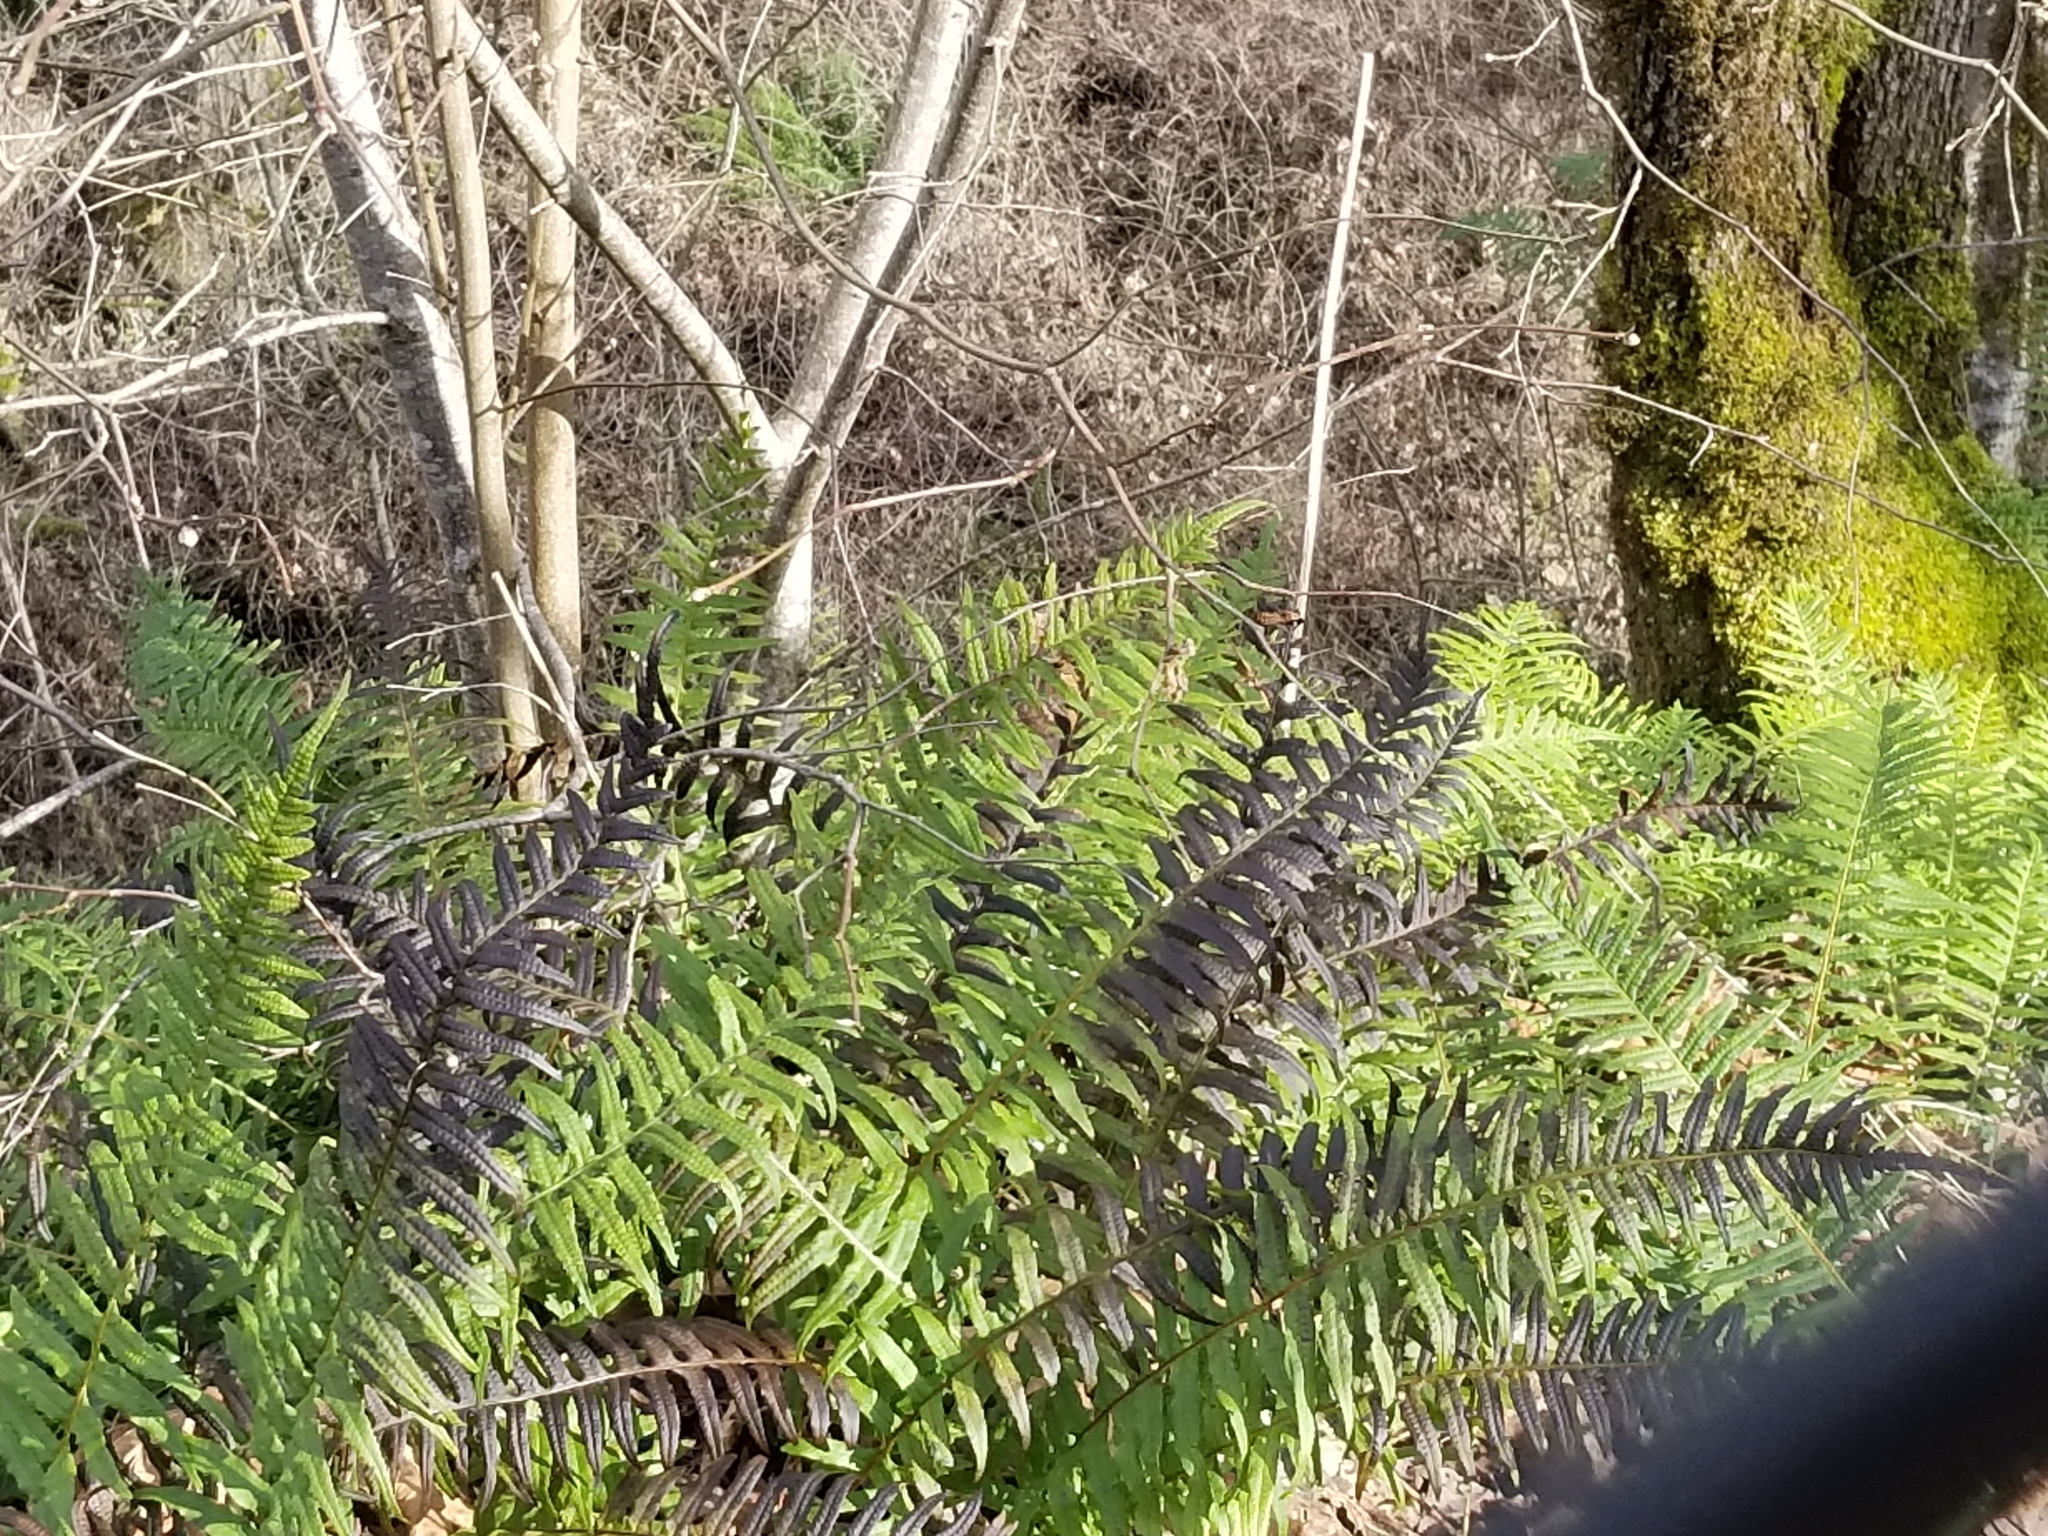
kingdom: Plantae
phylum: Tracheophyta
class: Polypodiopsida
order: Polypodiales
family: Polypodiaceae
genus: Polypodium
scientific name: Polypodium glycyrrhiza
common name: Licorice fern
